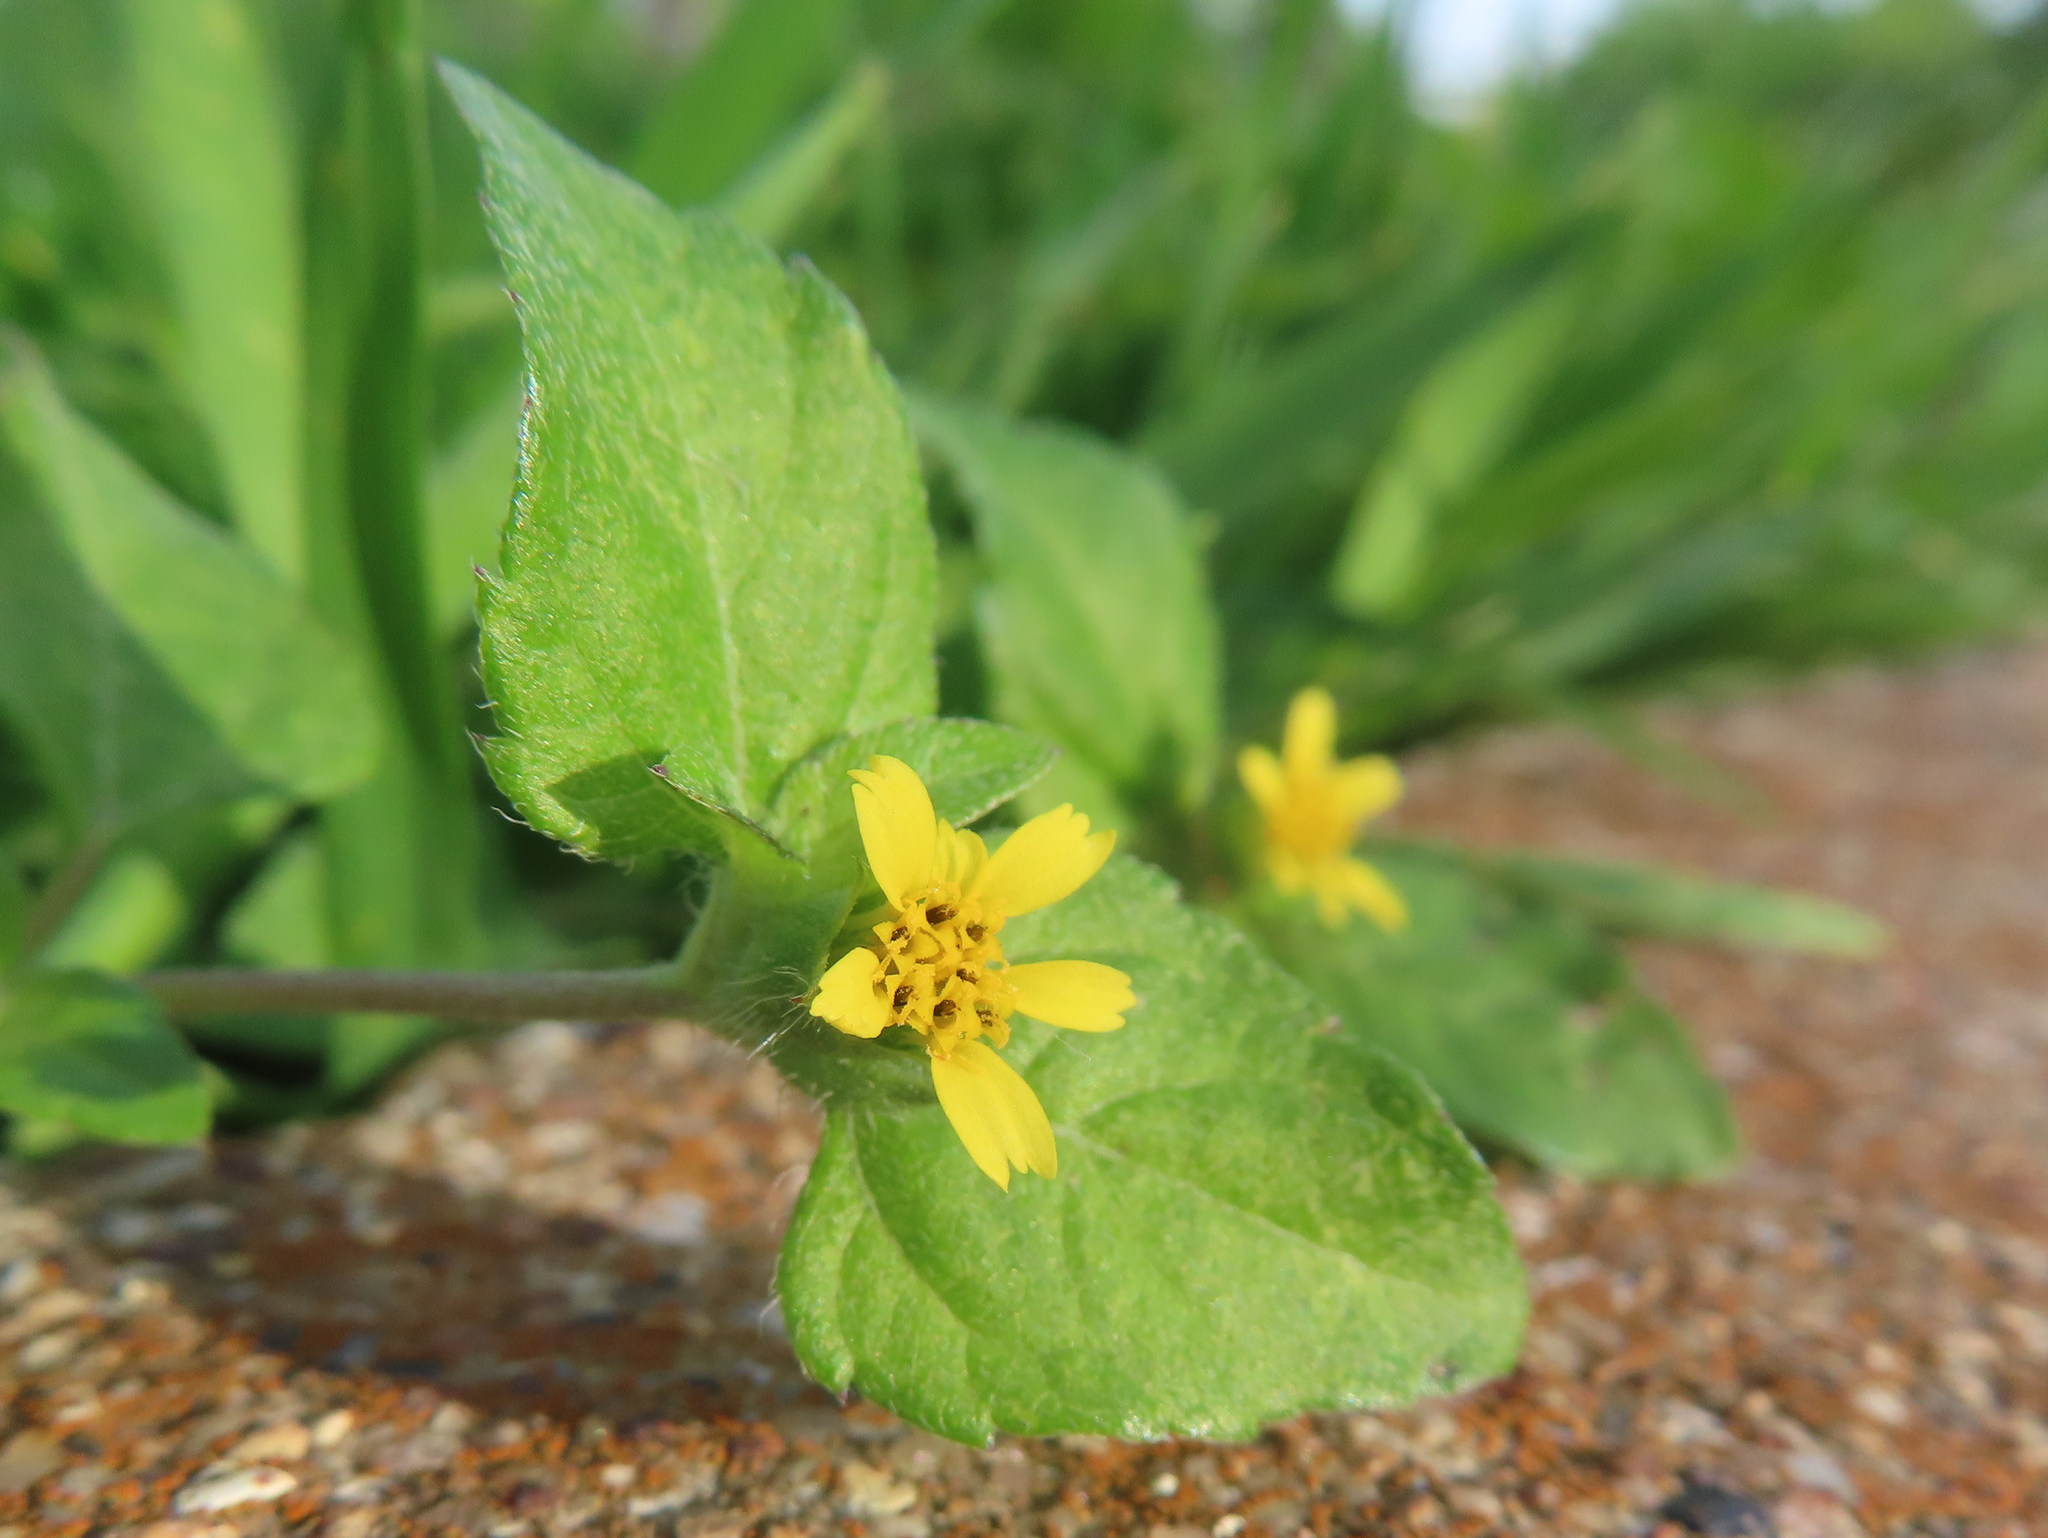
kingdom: Plantae
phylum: Tracheophyta
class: Magnoliopsida
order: Asterales
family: Asteraceae
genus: Calyptocarpus
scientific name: Calyptocarpus vialis
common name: Straggler daisy
